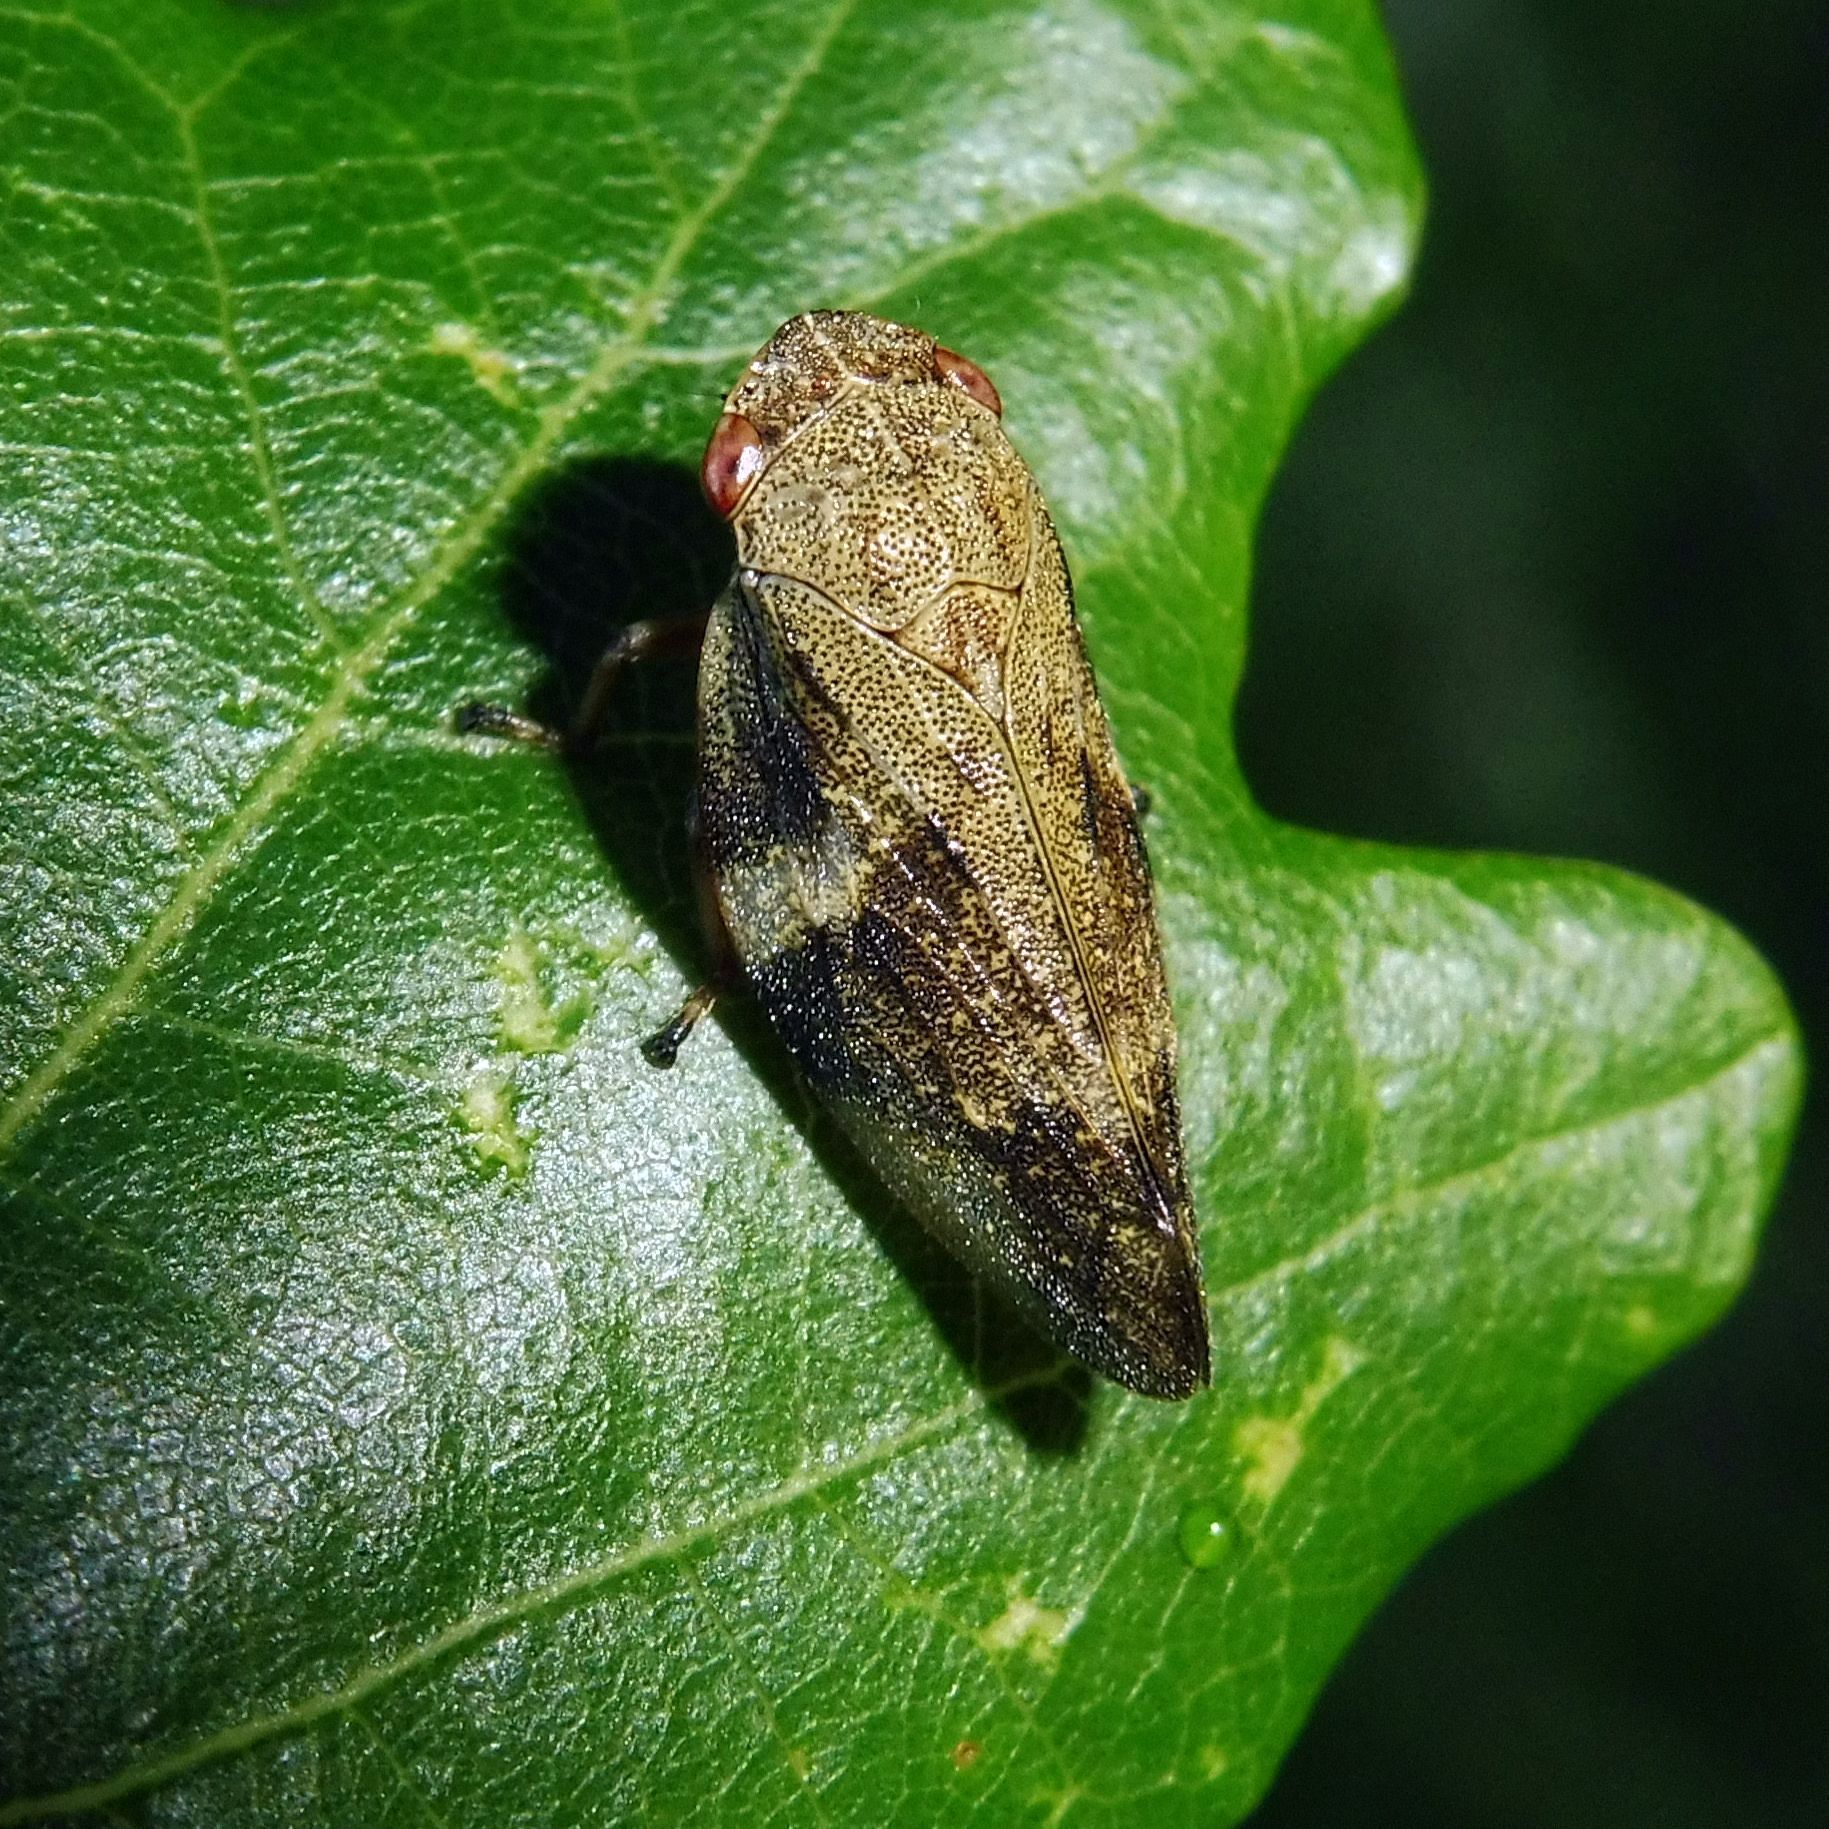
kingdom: Animalia
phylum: Arthropoda
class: Insecta
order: Hemiptera
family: Aphrophoridae
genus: Aphrophora
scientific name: Aphrophora alni
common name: European alder spittlebug
